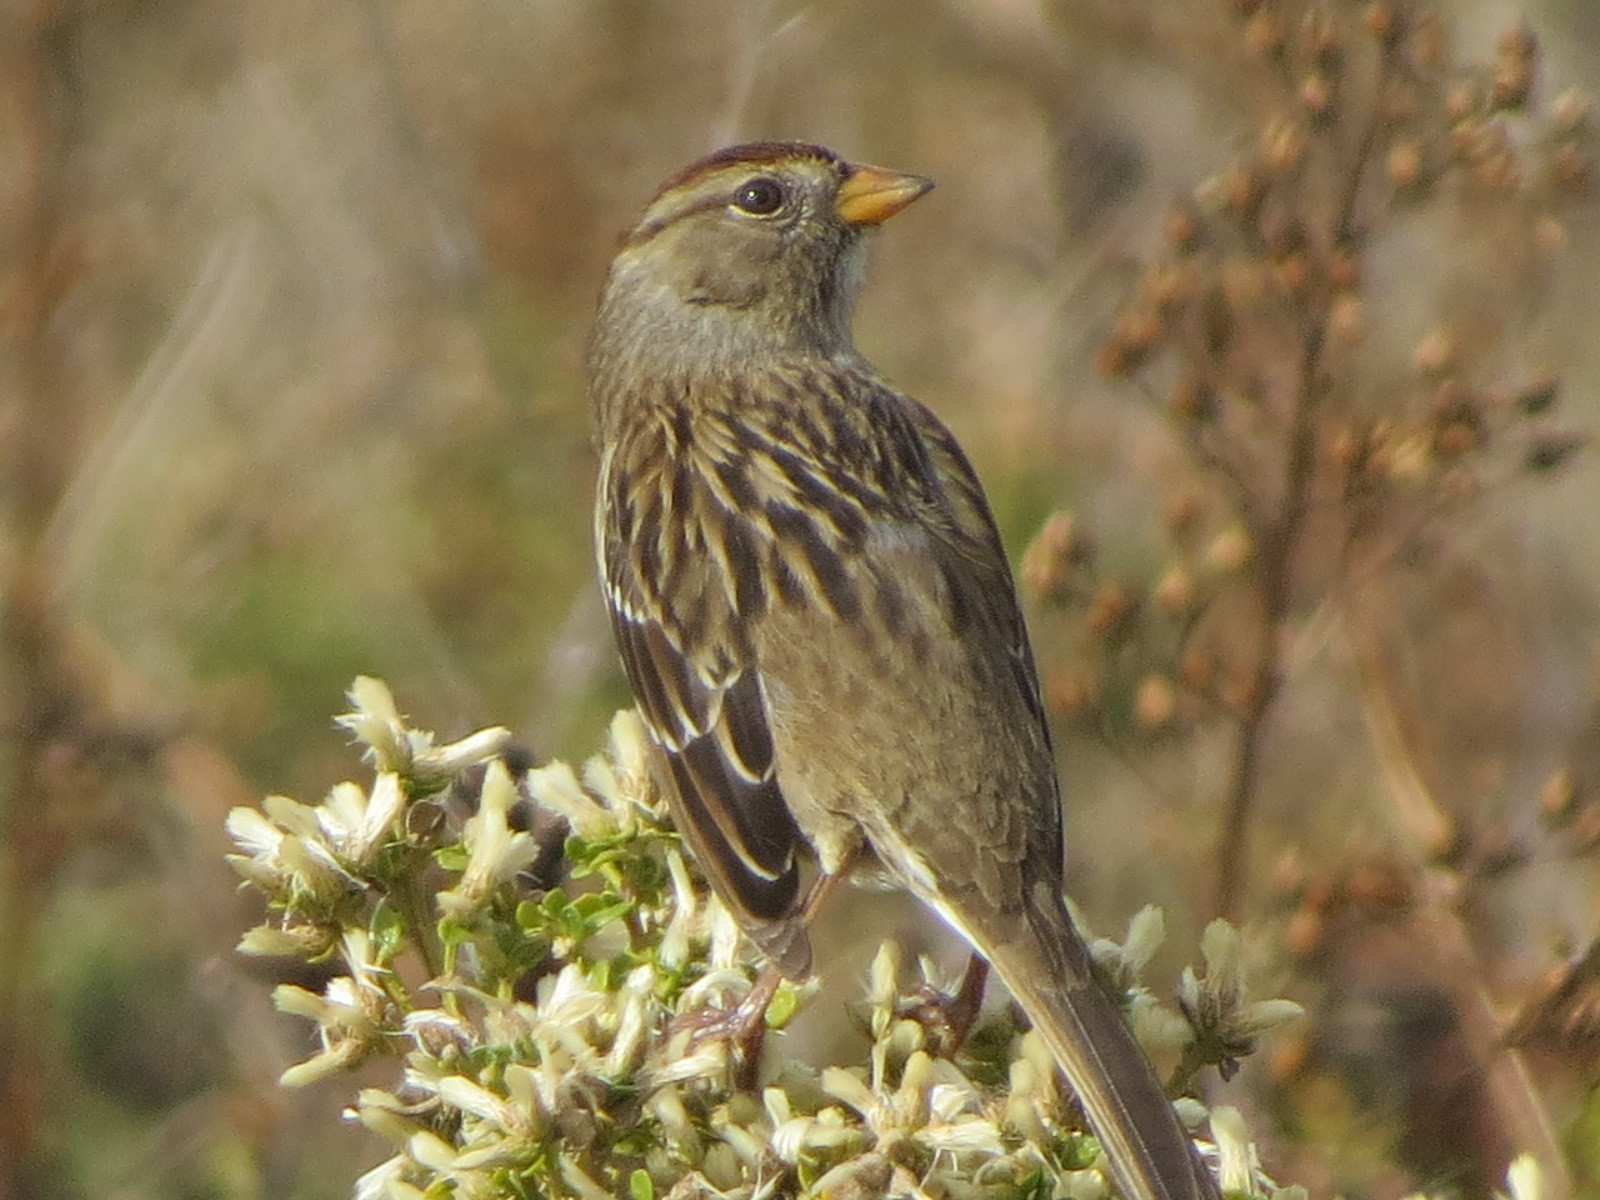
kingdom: Animalia
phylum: Chordata
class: Aves
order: Passeriformes
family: Passerellidae
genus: Zonotrichia
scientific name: Zonotrichia leucophrys
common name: White-crowned sparrow
